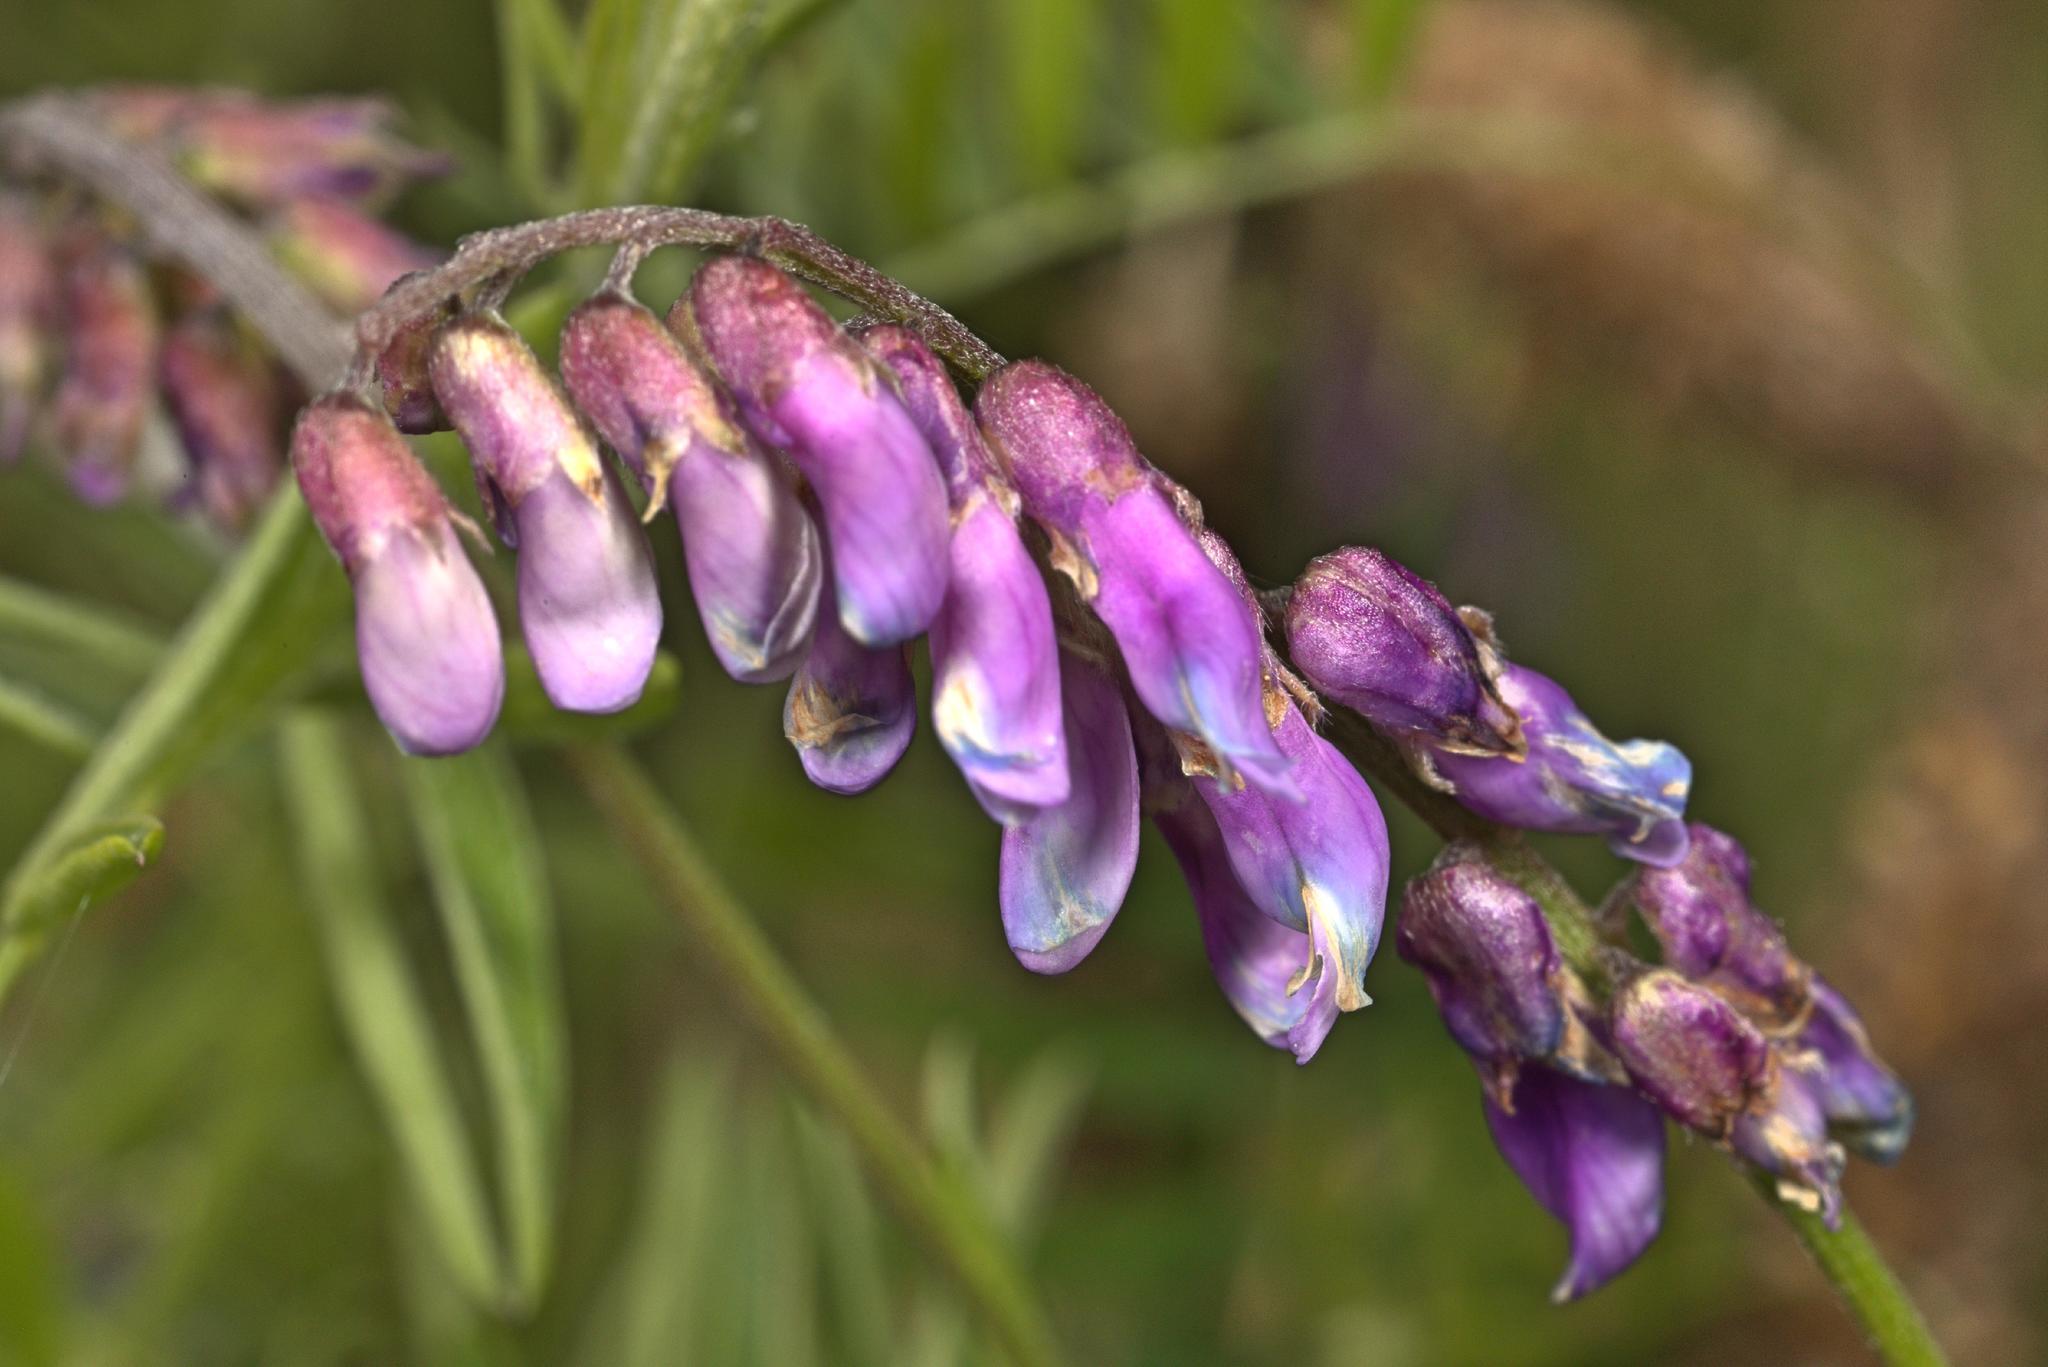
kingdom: Plantae
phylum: Tracheophyta
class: Magnoliopsida
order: Fabales
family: Fabaceae
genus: Vicia
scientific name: Vicia cracca
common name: Bird vetch
